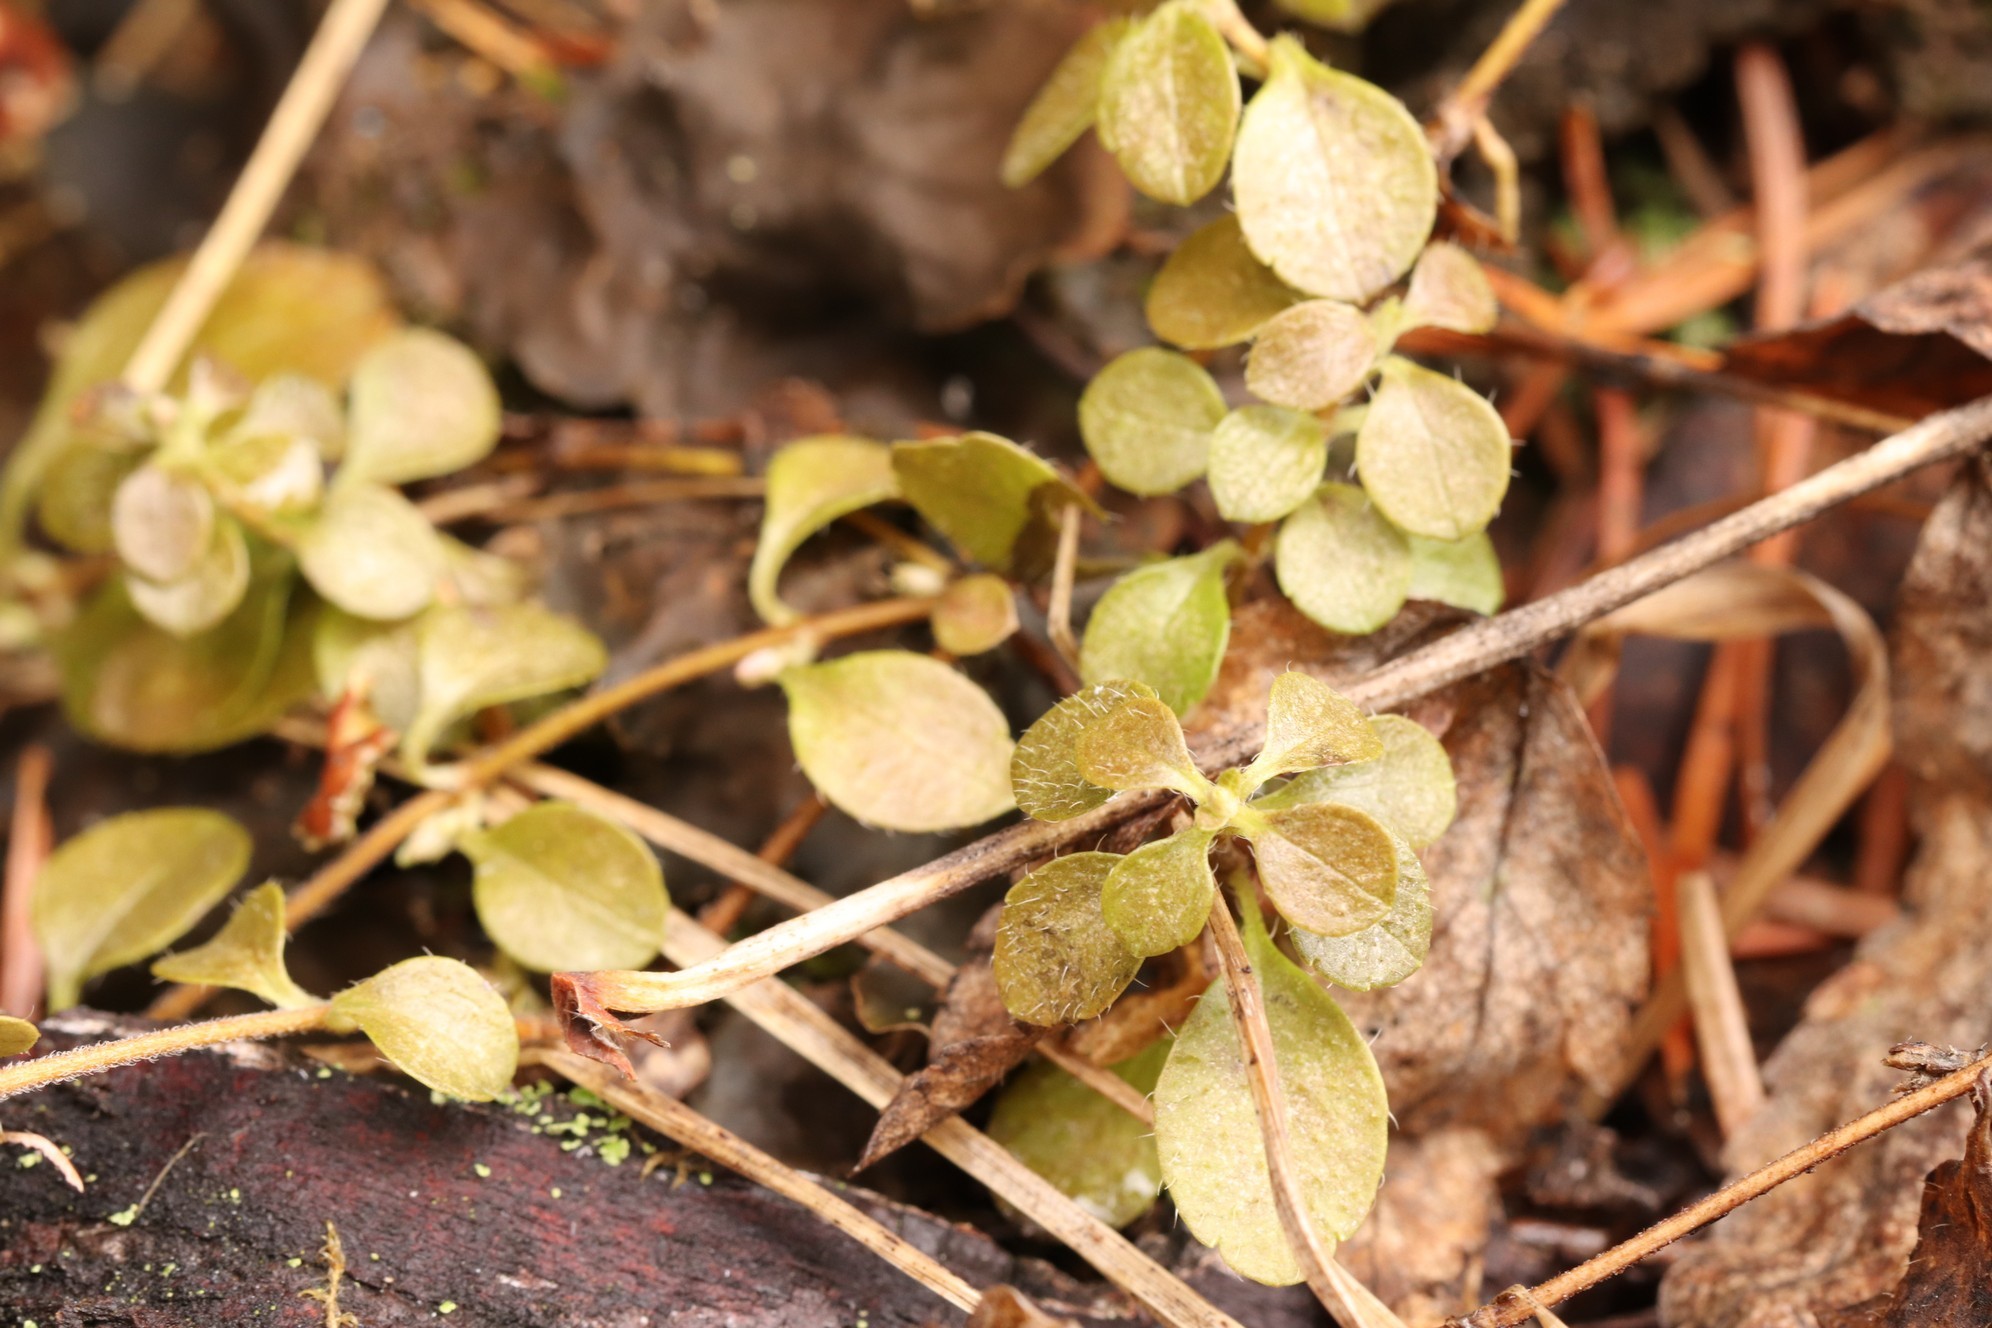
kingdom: Plantae
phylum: Tracheophyta
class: Magnoliopsida
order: Dipsacales
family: Caprifoliaceae
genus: Linnaea
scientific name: Linnaea borealis
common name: Twinflower
